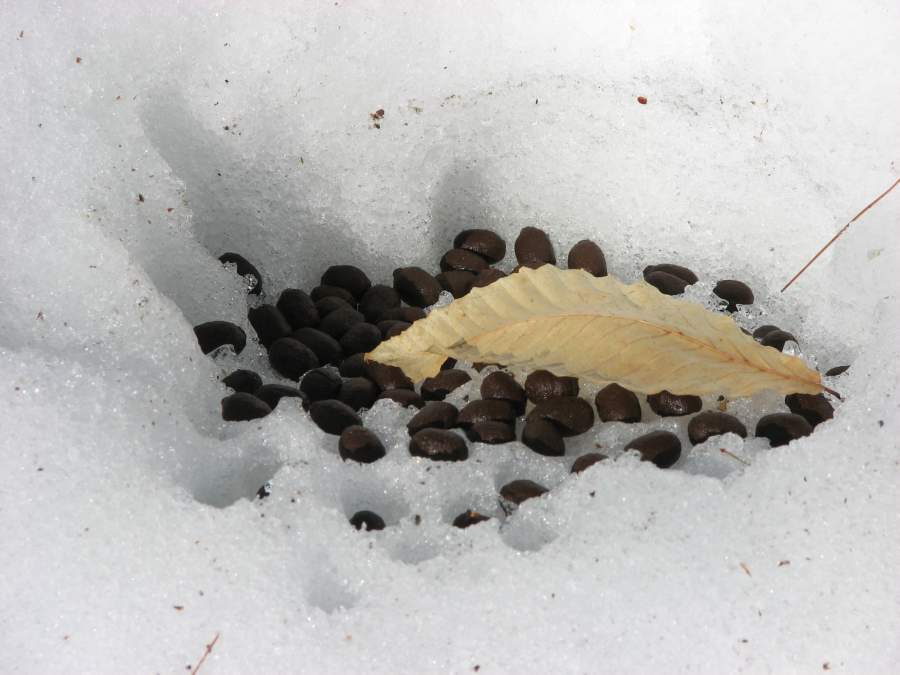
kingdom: Animalia
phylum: Chordata
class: Mammalia
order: Artiodactyla
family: Cervidae
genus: Odocoileus
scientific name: Odocoileus virginianus
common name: White-tailed deer
